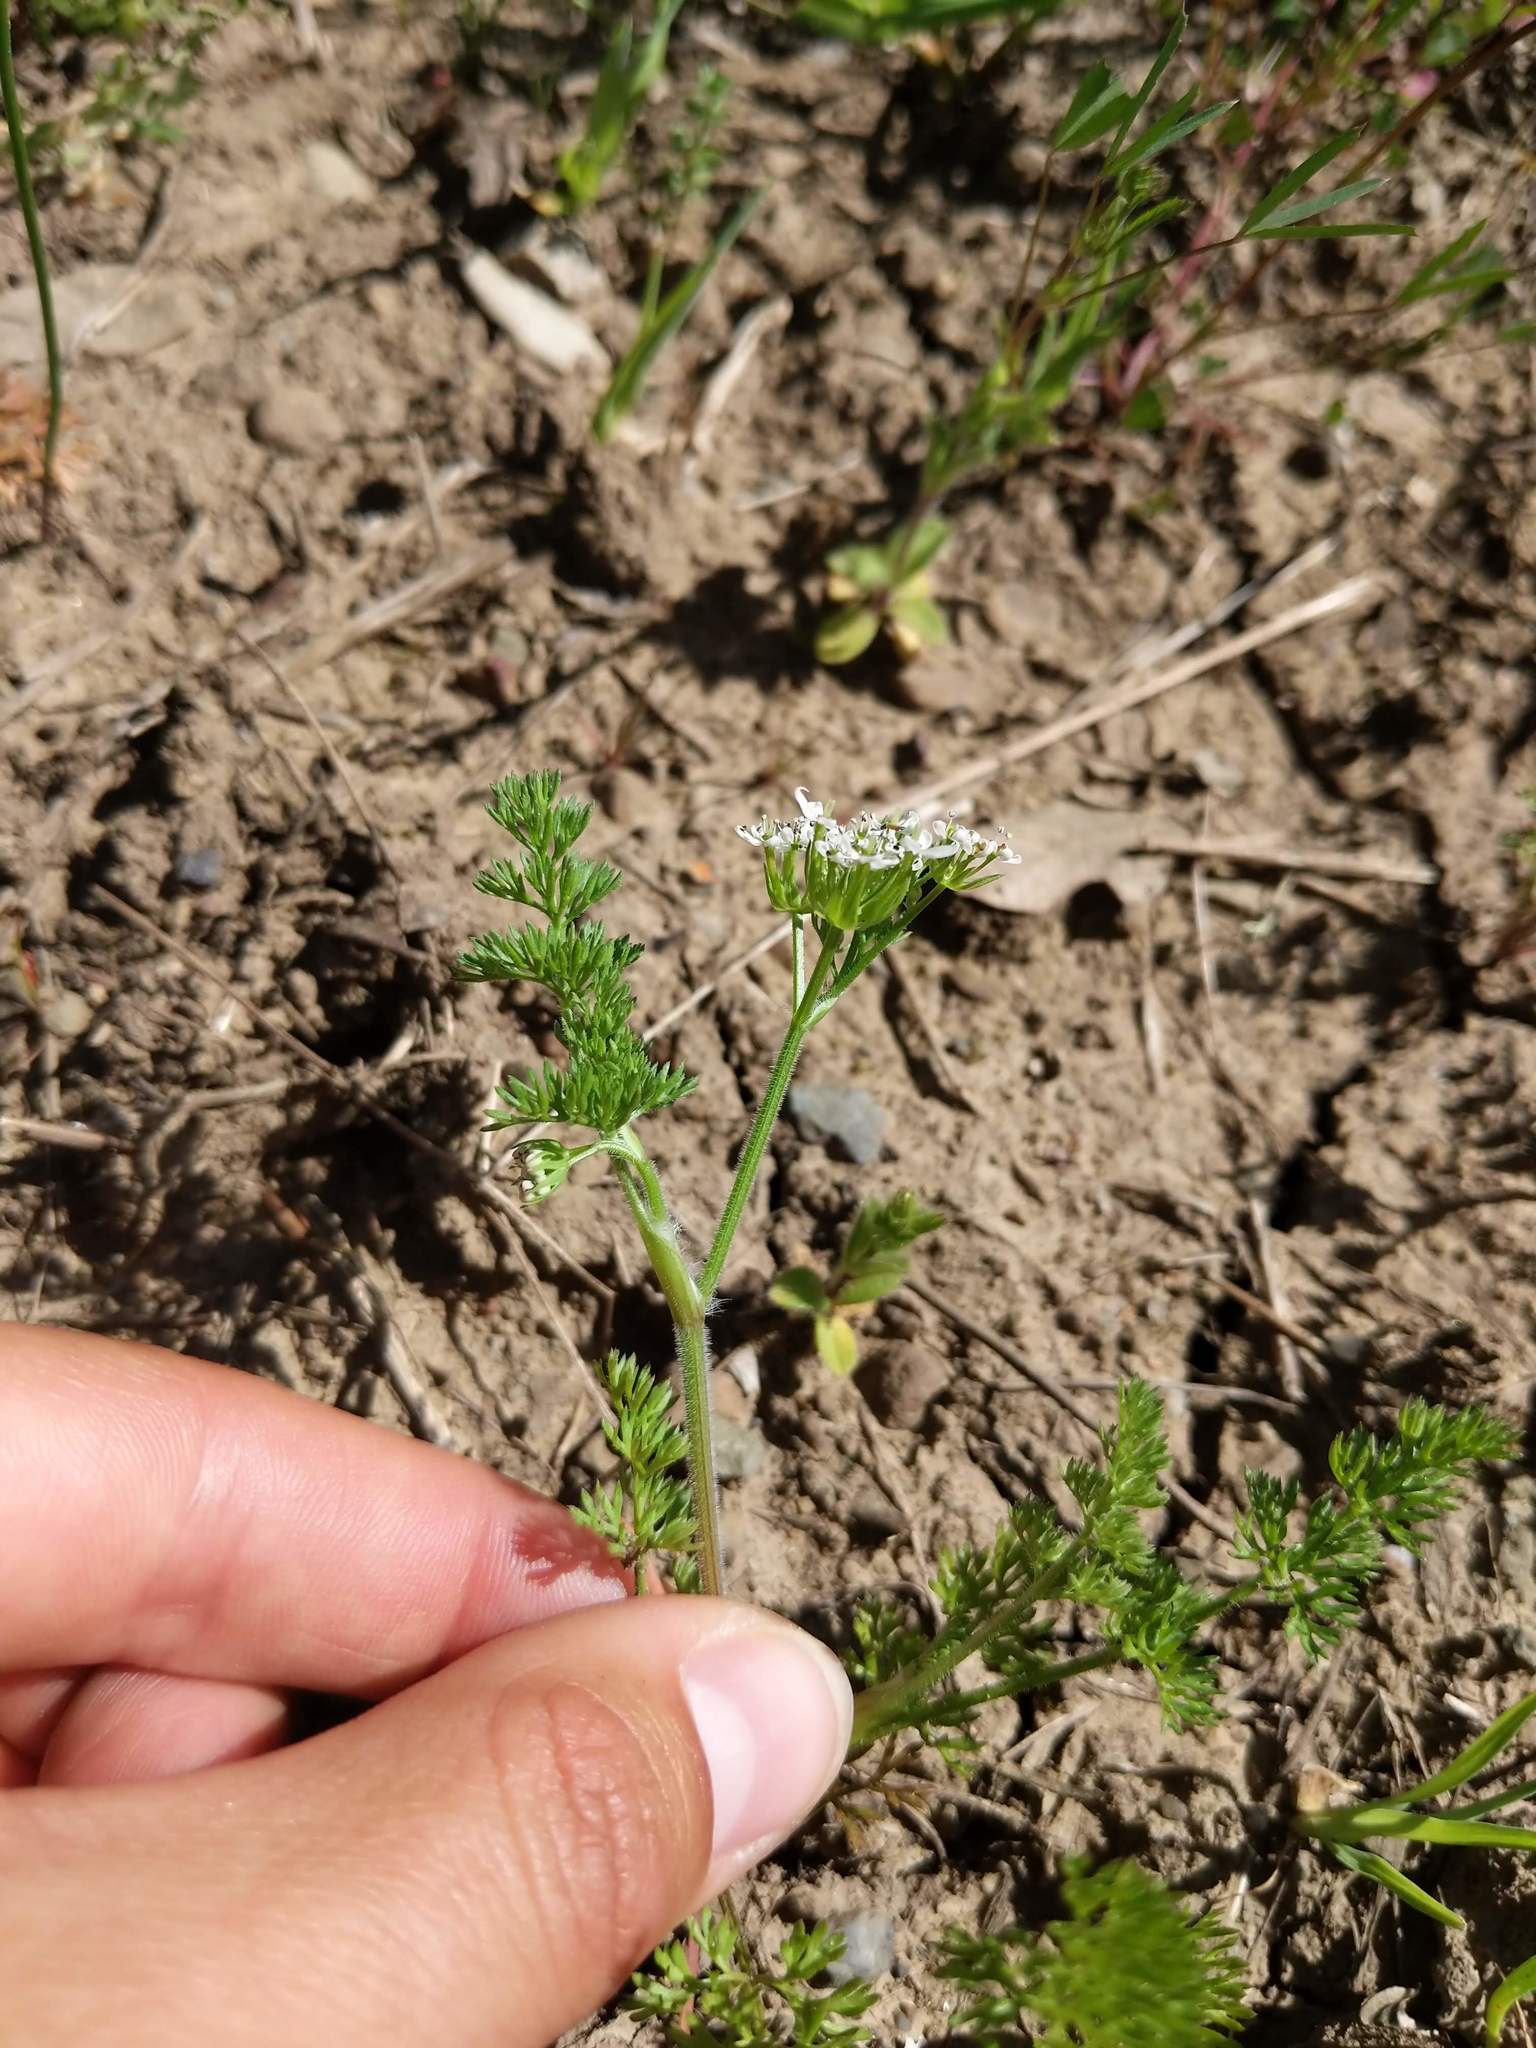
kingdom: Plantae
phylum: Tracheophyta
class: Magnoliopsida
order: Apiales
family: Apiaceae
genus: Scandix
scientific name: Scandix pecten-veneris
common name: Shepherd's-needle
